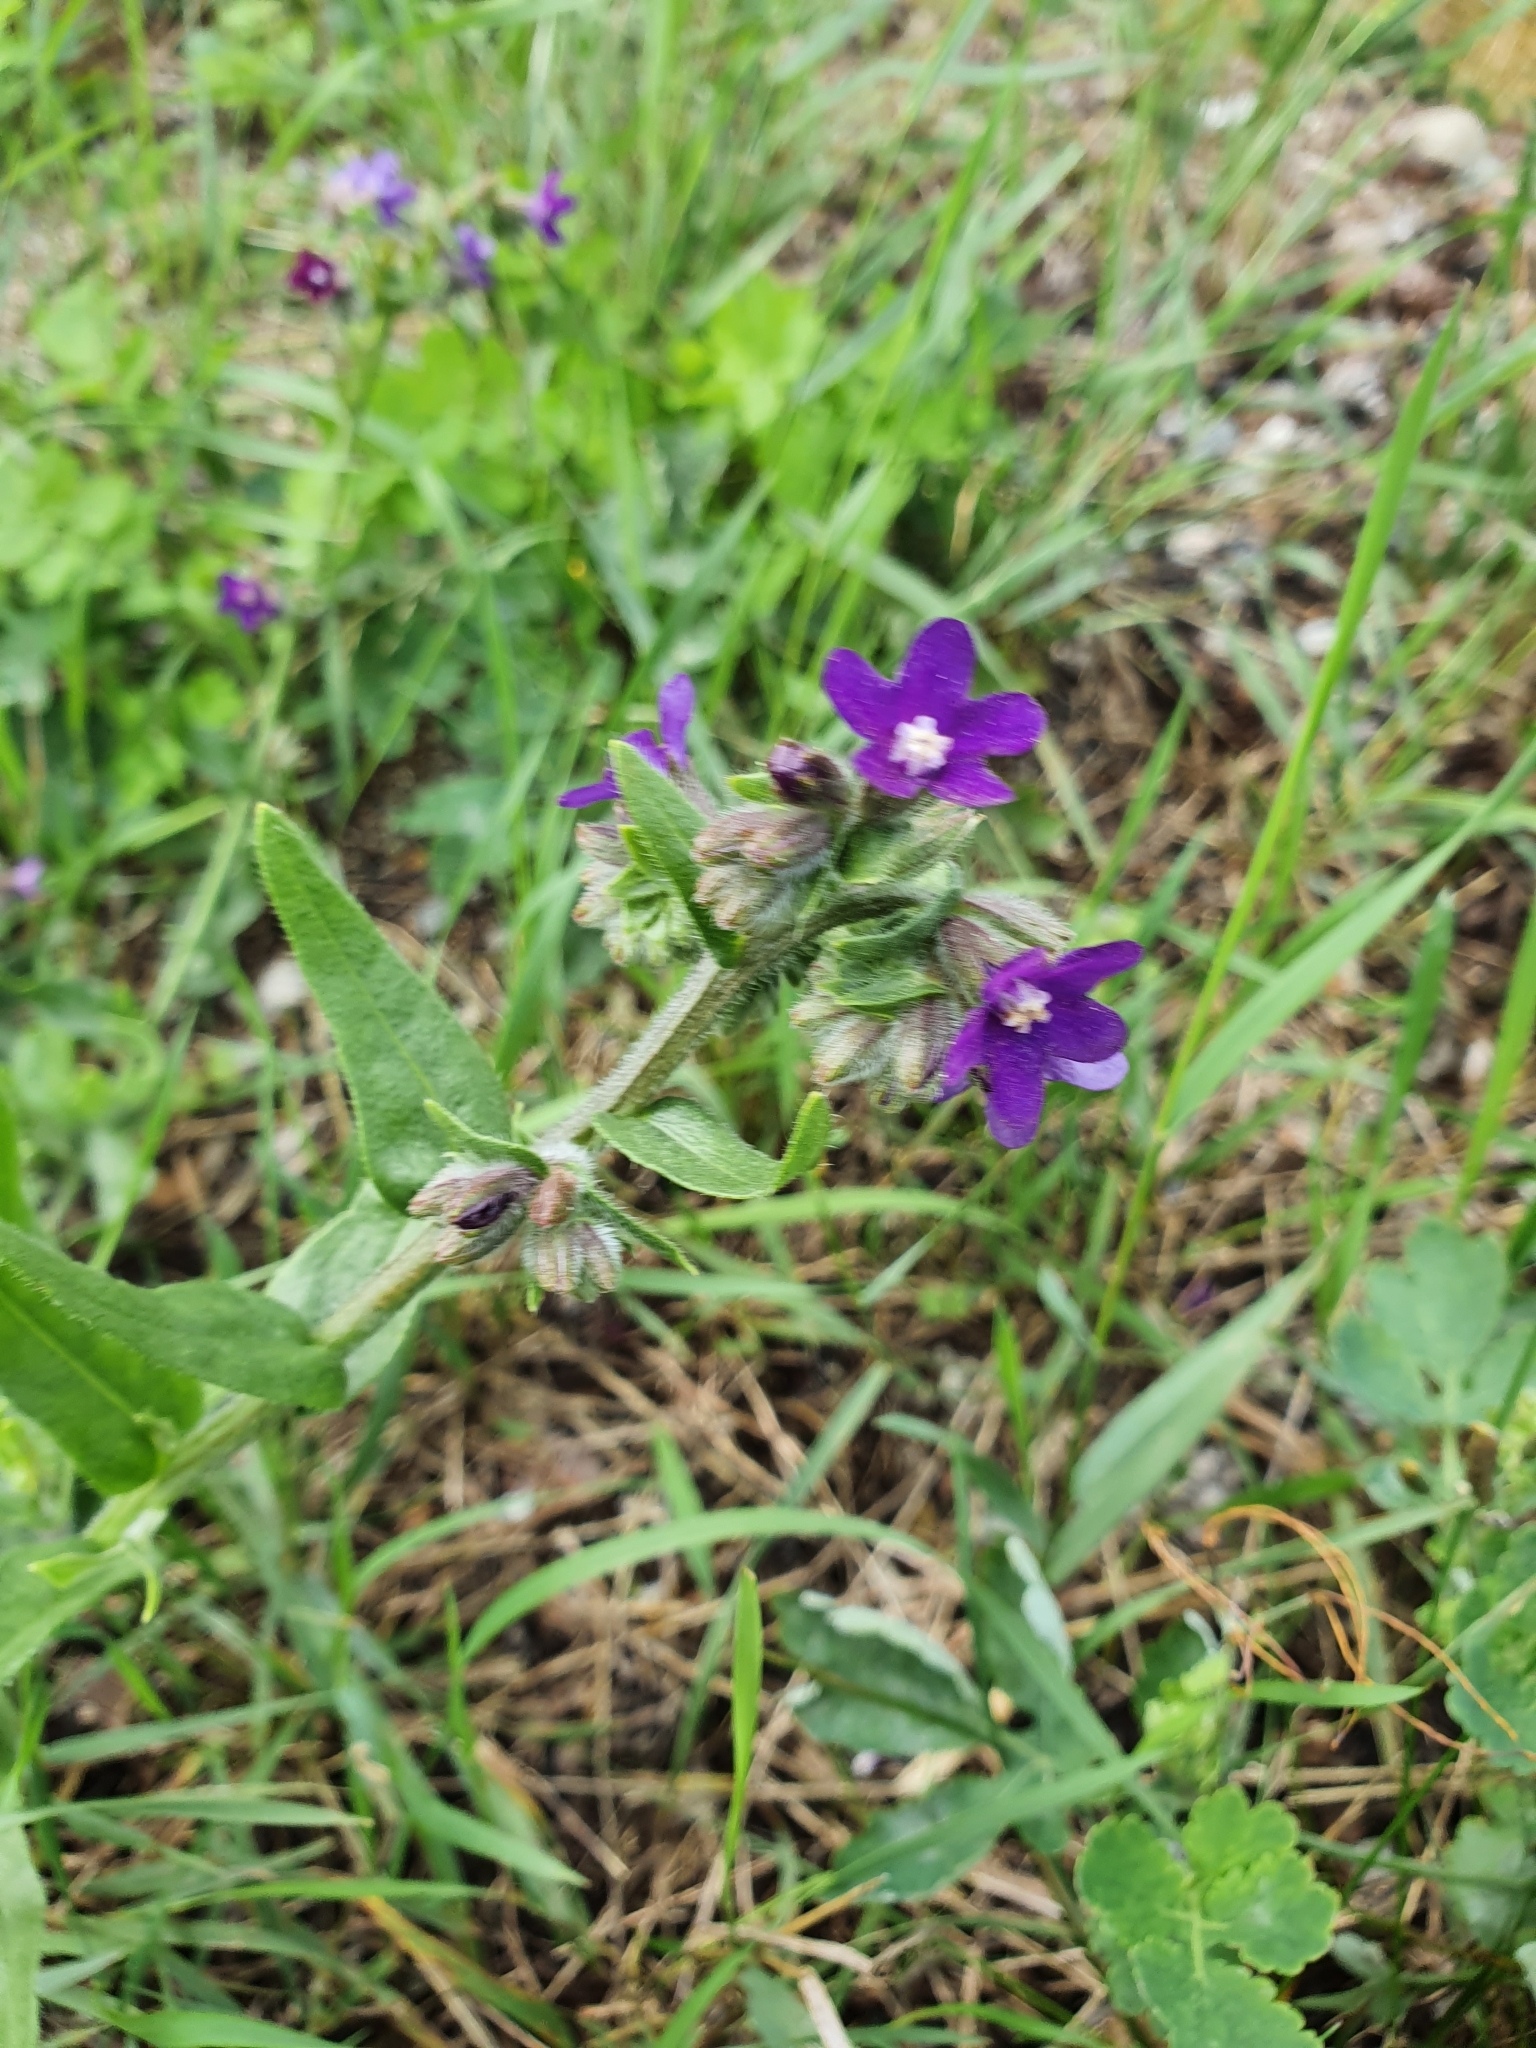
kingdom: Plantae
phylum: Tracheophyta
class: Magnoliopsida
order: Boraginales
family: Boraginaceae
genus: Anchusa
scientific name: Anchusa officinalis
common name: Alkanet
